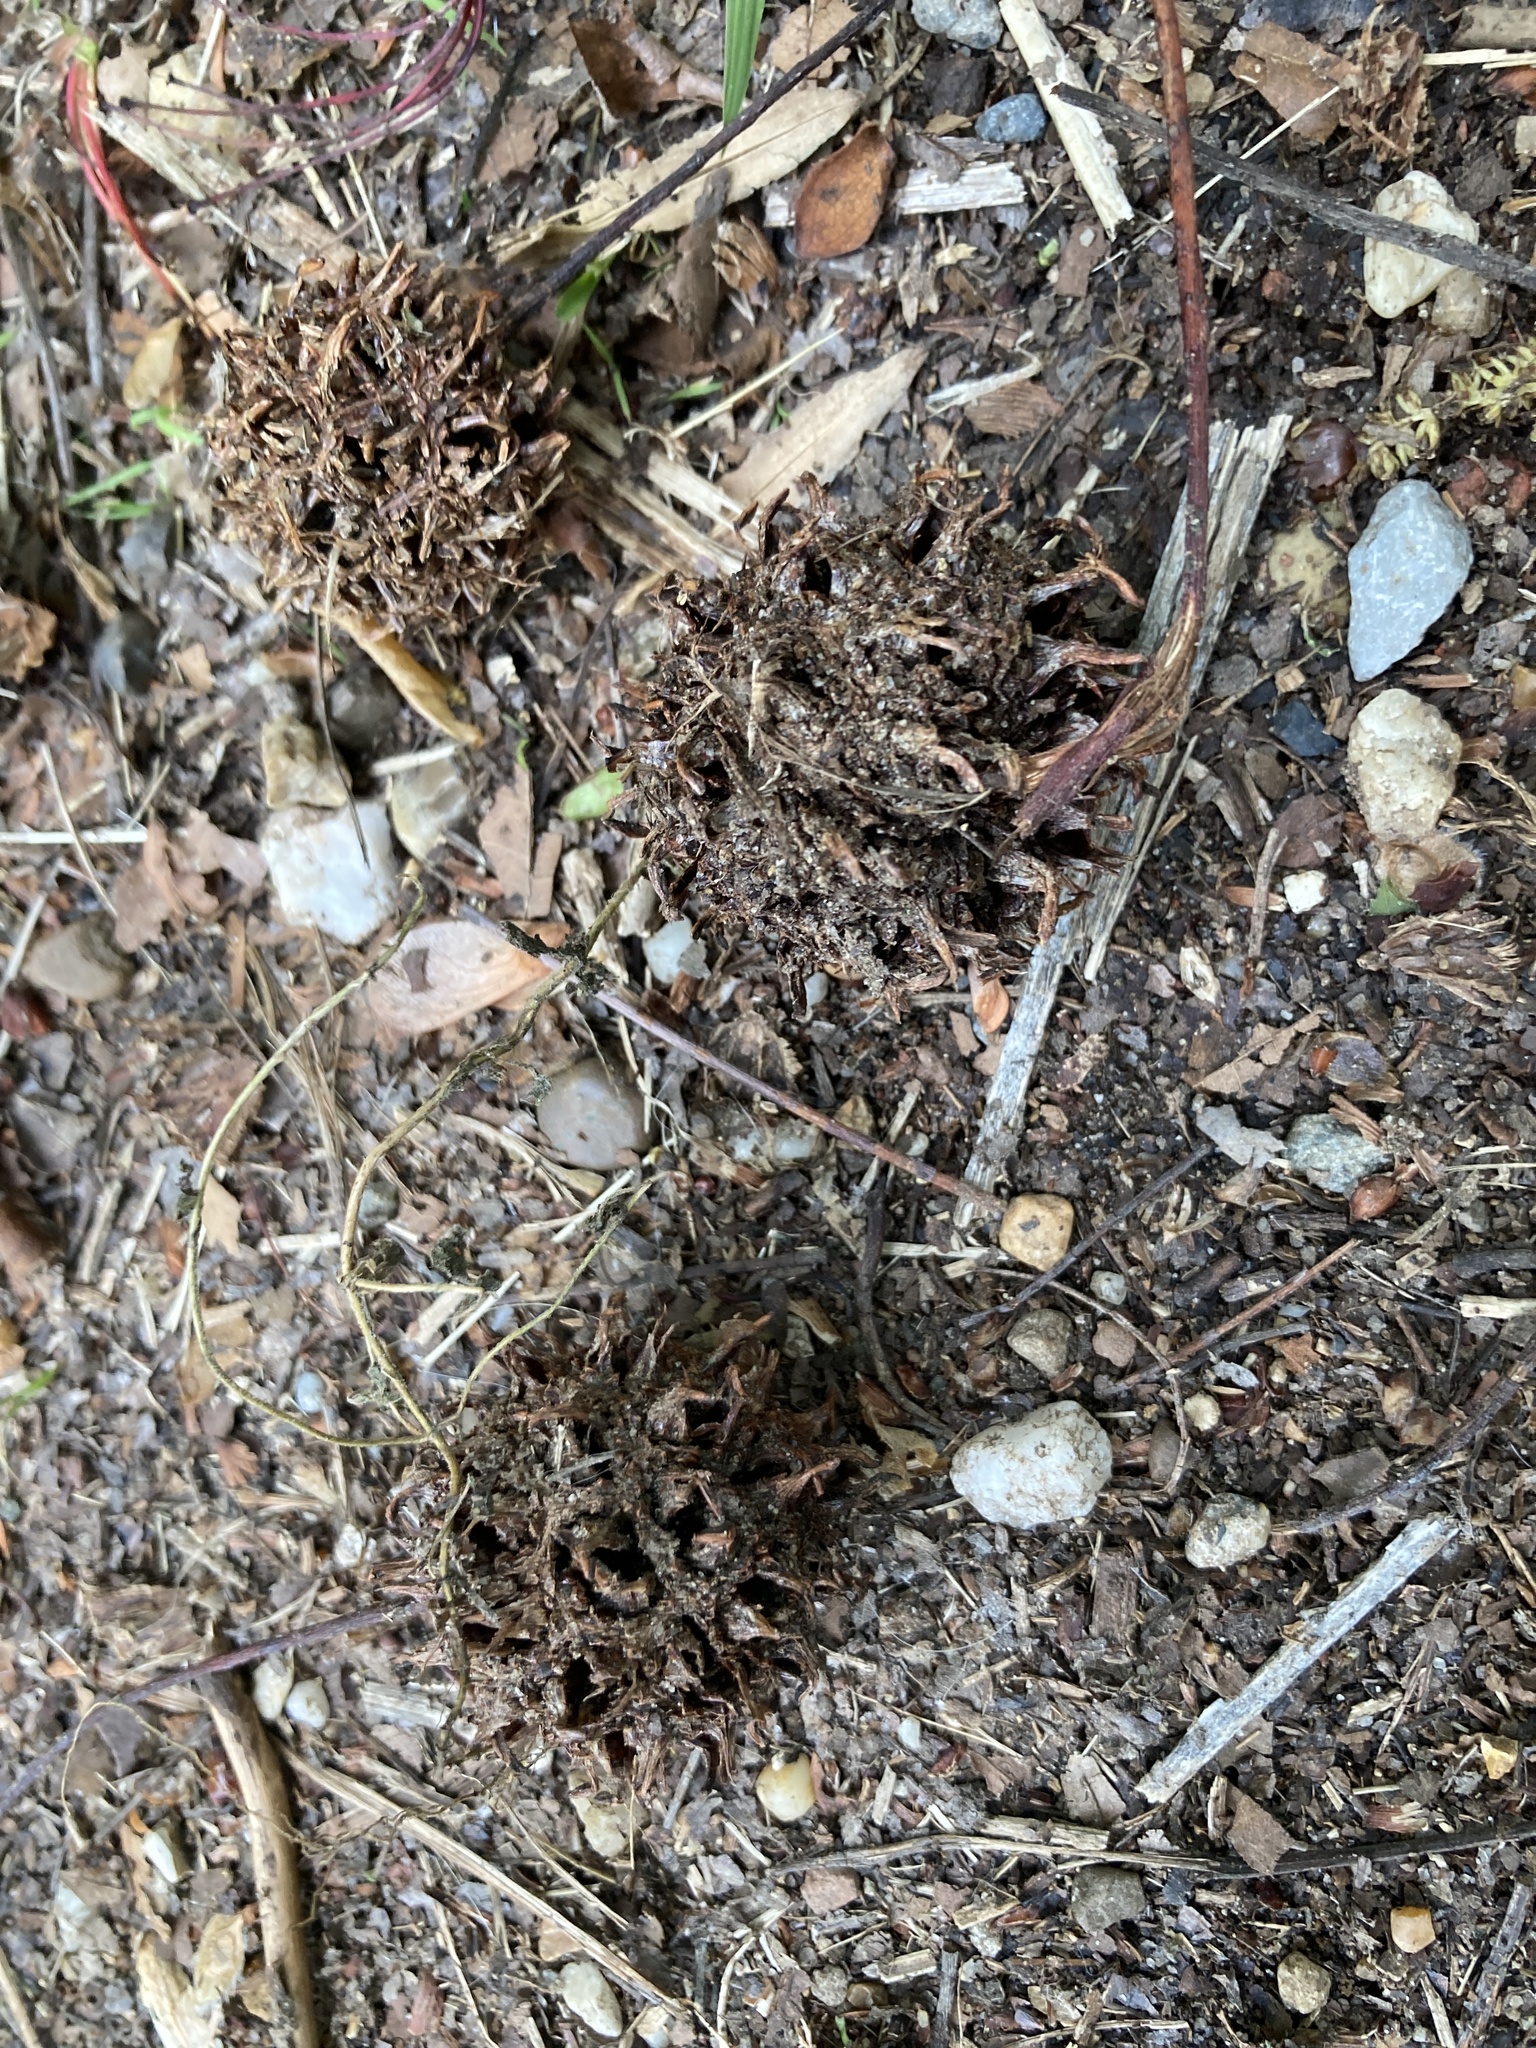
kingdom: Plantae
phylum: Tracheophyta
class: Magnoliopsida
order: Saxifragales
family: Altingiaceae
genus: Liquidambar
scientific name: Liquidambar styraciflua
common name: Sweet gum
